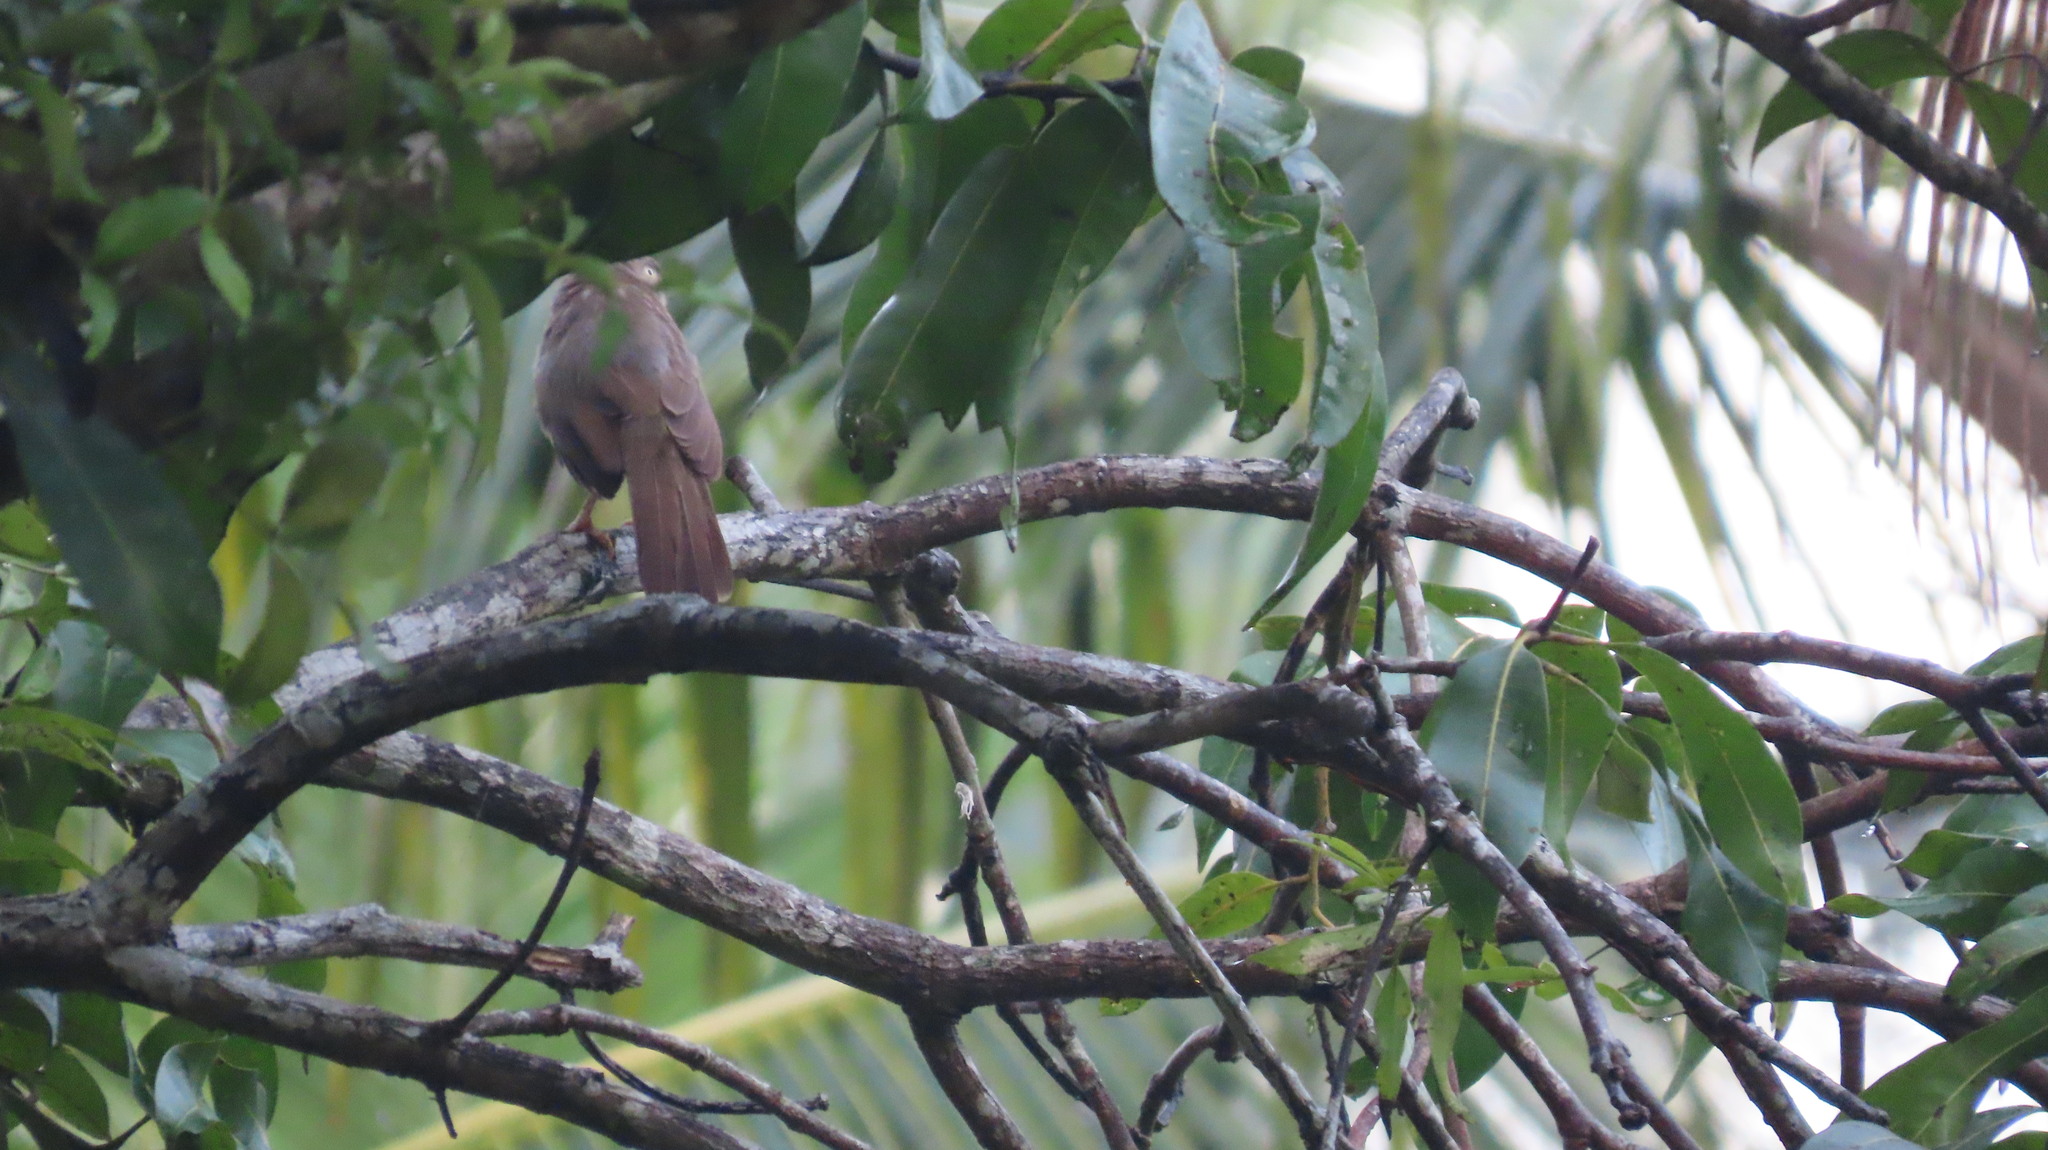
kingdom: Animalia
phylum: Chordata
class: Aves
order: Passeriformes
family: Leiothrichidae
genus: Turdoides
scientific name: Turdoides striata
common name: Jungle babbler
